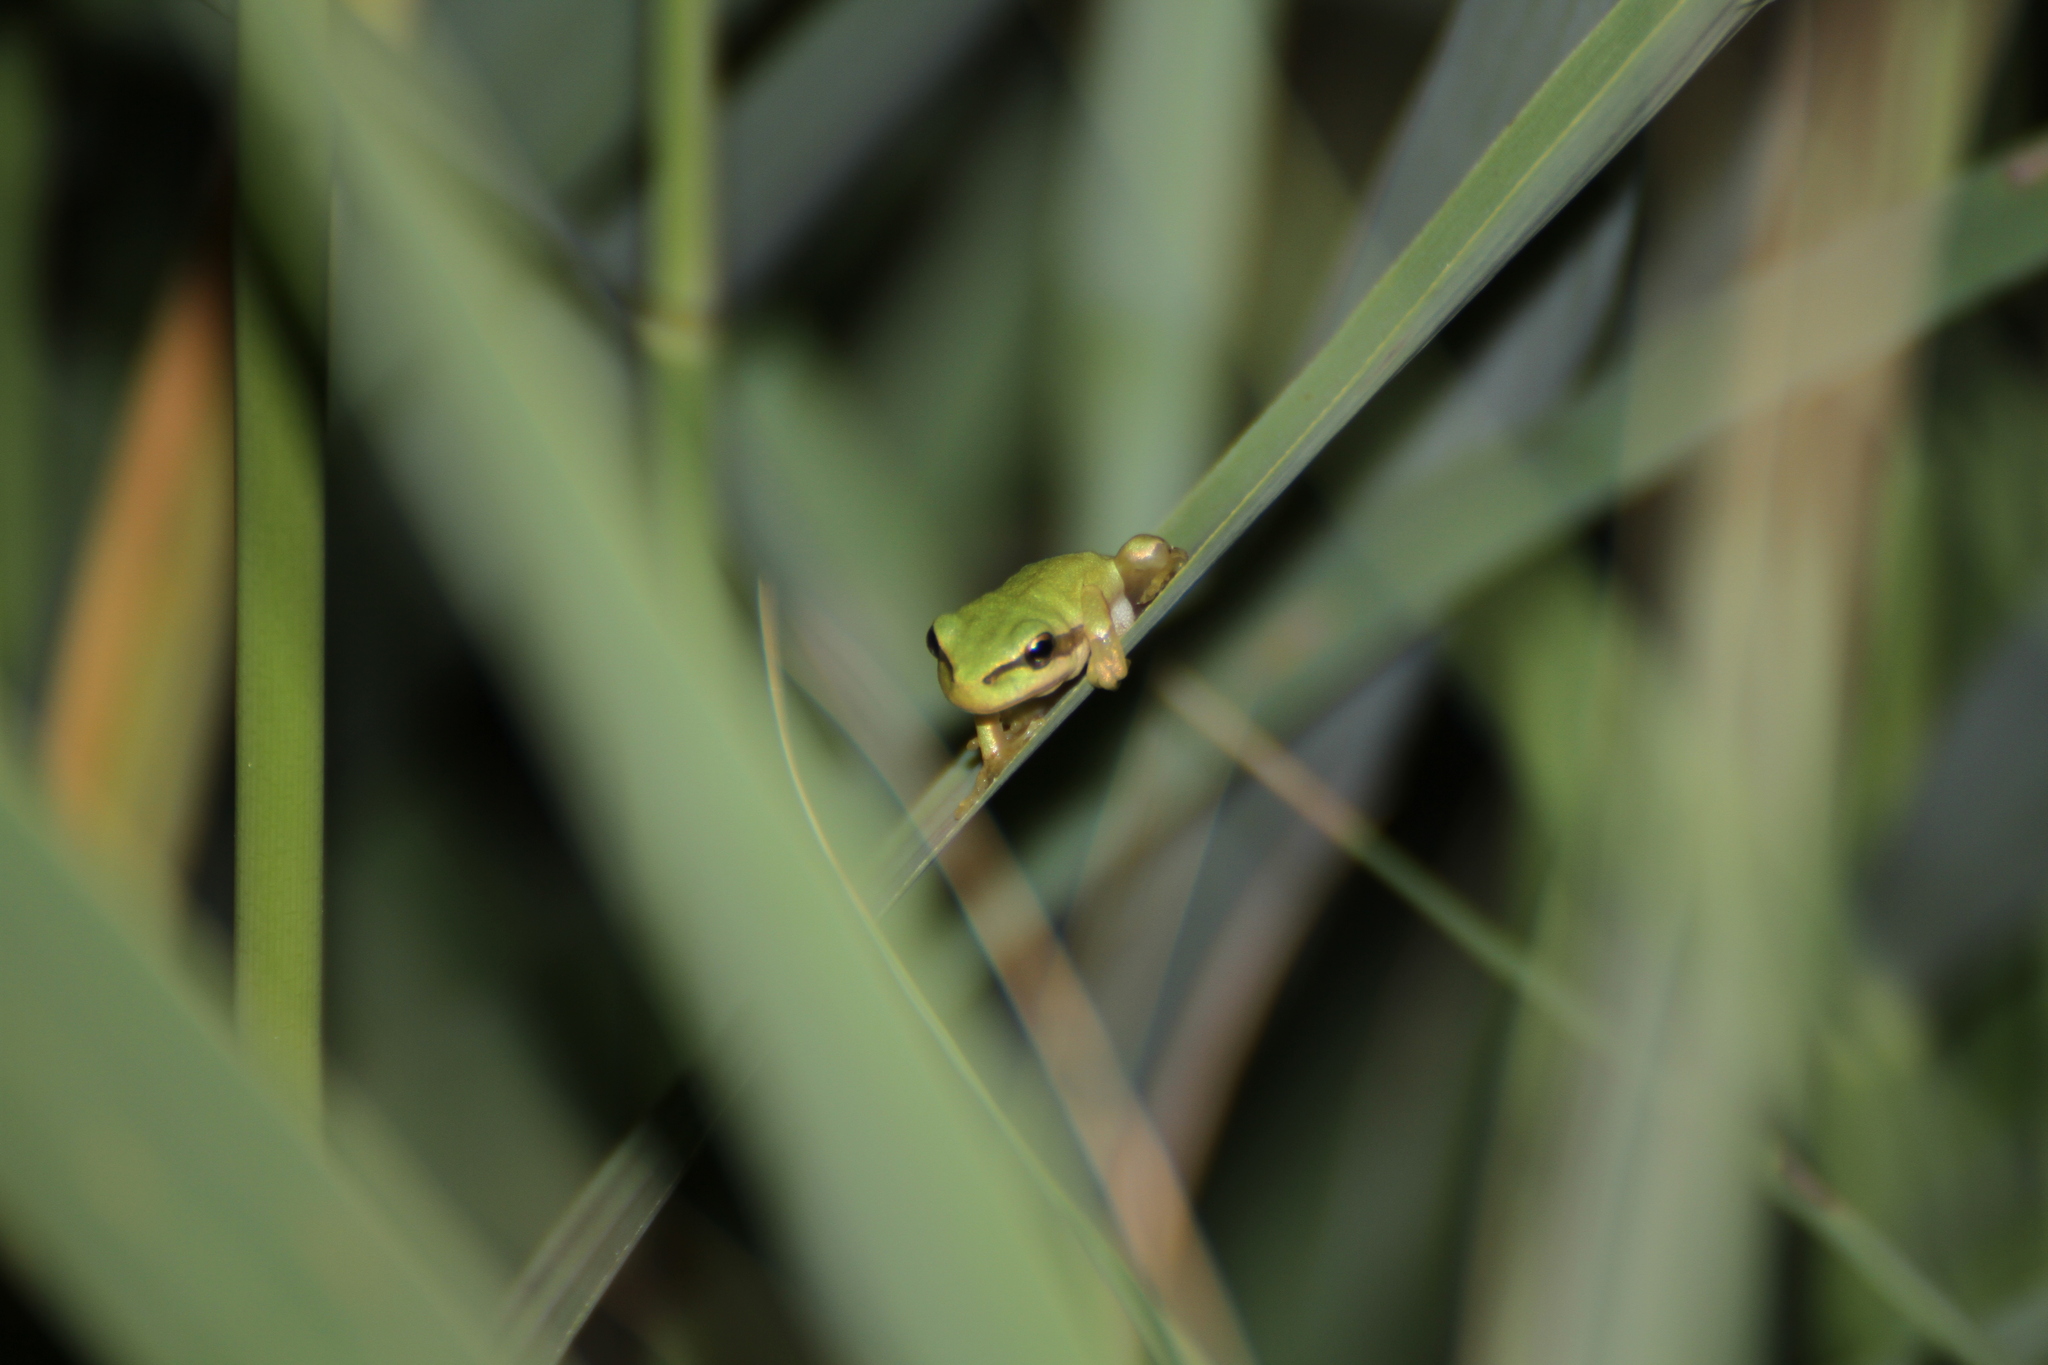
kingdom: Animalia
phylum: Chordata
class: Amphibia
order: Anura
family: Hylidae
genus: Hyla
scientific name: Hyla meridionalis
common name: Stripeless tree frog
